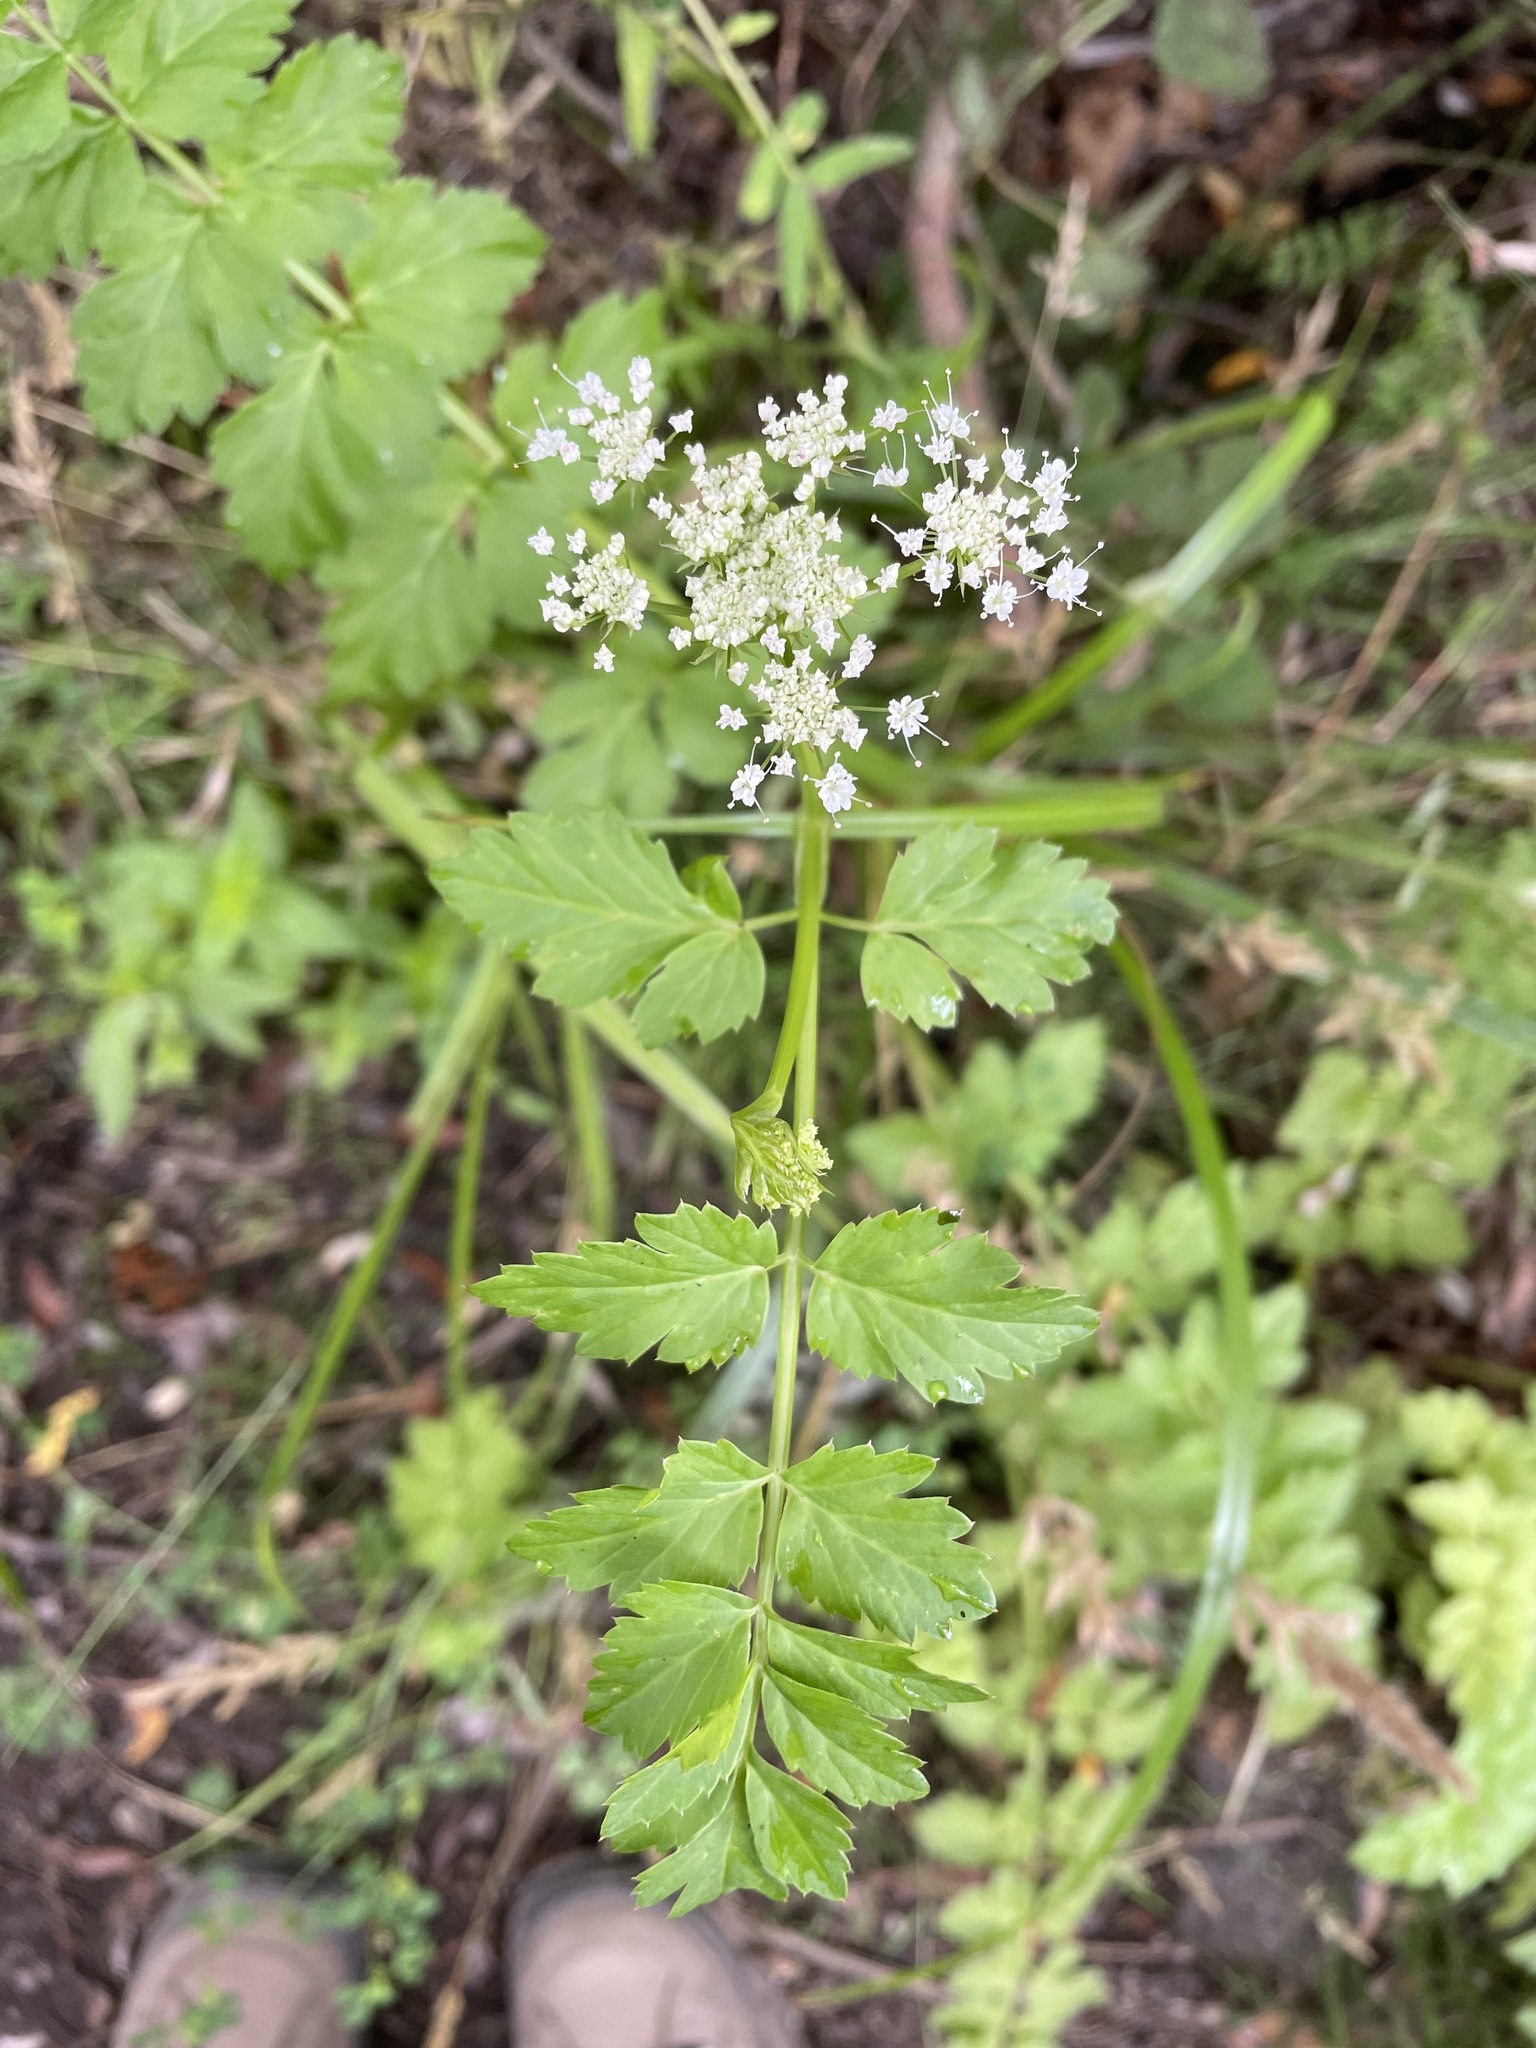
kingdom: Plantae
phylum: Tracheophyta
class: Magnoliopsida
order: Apiales
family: Apiaceae
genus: Oenanthe
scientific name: Oenanthe sarmentosa
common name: American water-parsley
